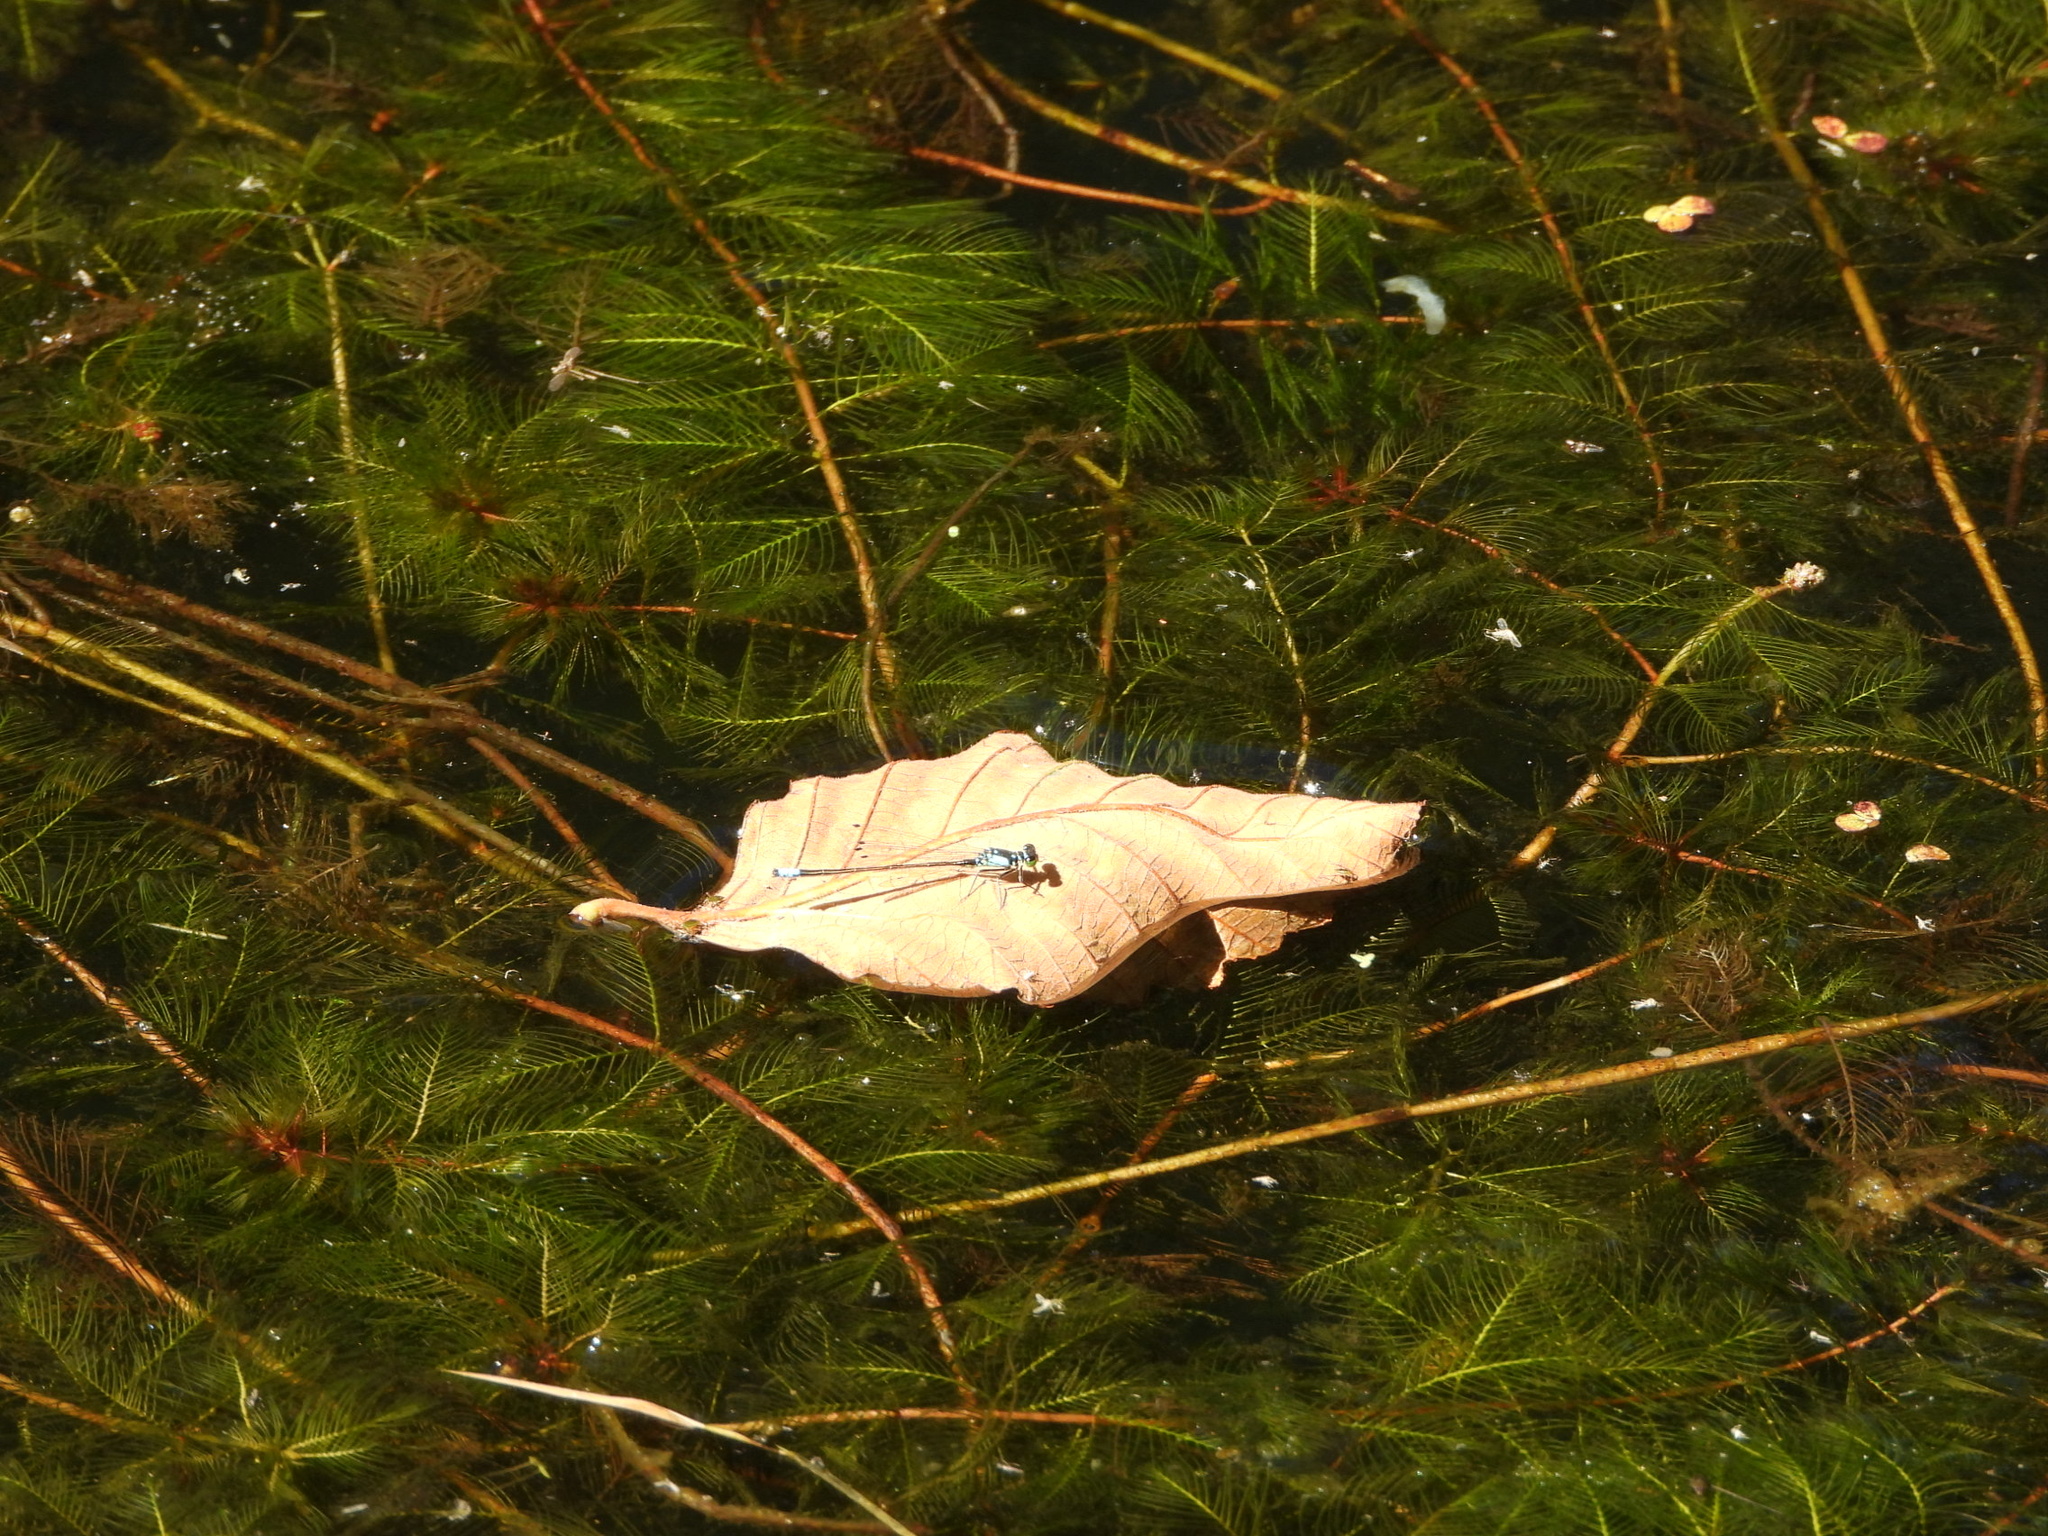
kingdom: Plantae
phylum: Tracheophyta
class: Magnoliopsida
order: Saxifragales
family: Haloragaceae
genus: Myriophyllum
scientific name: Myriophyllum spicatum
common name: Spiked water-milfoil
